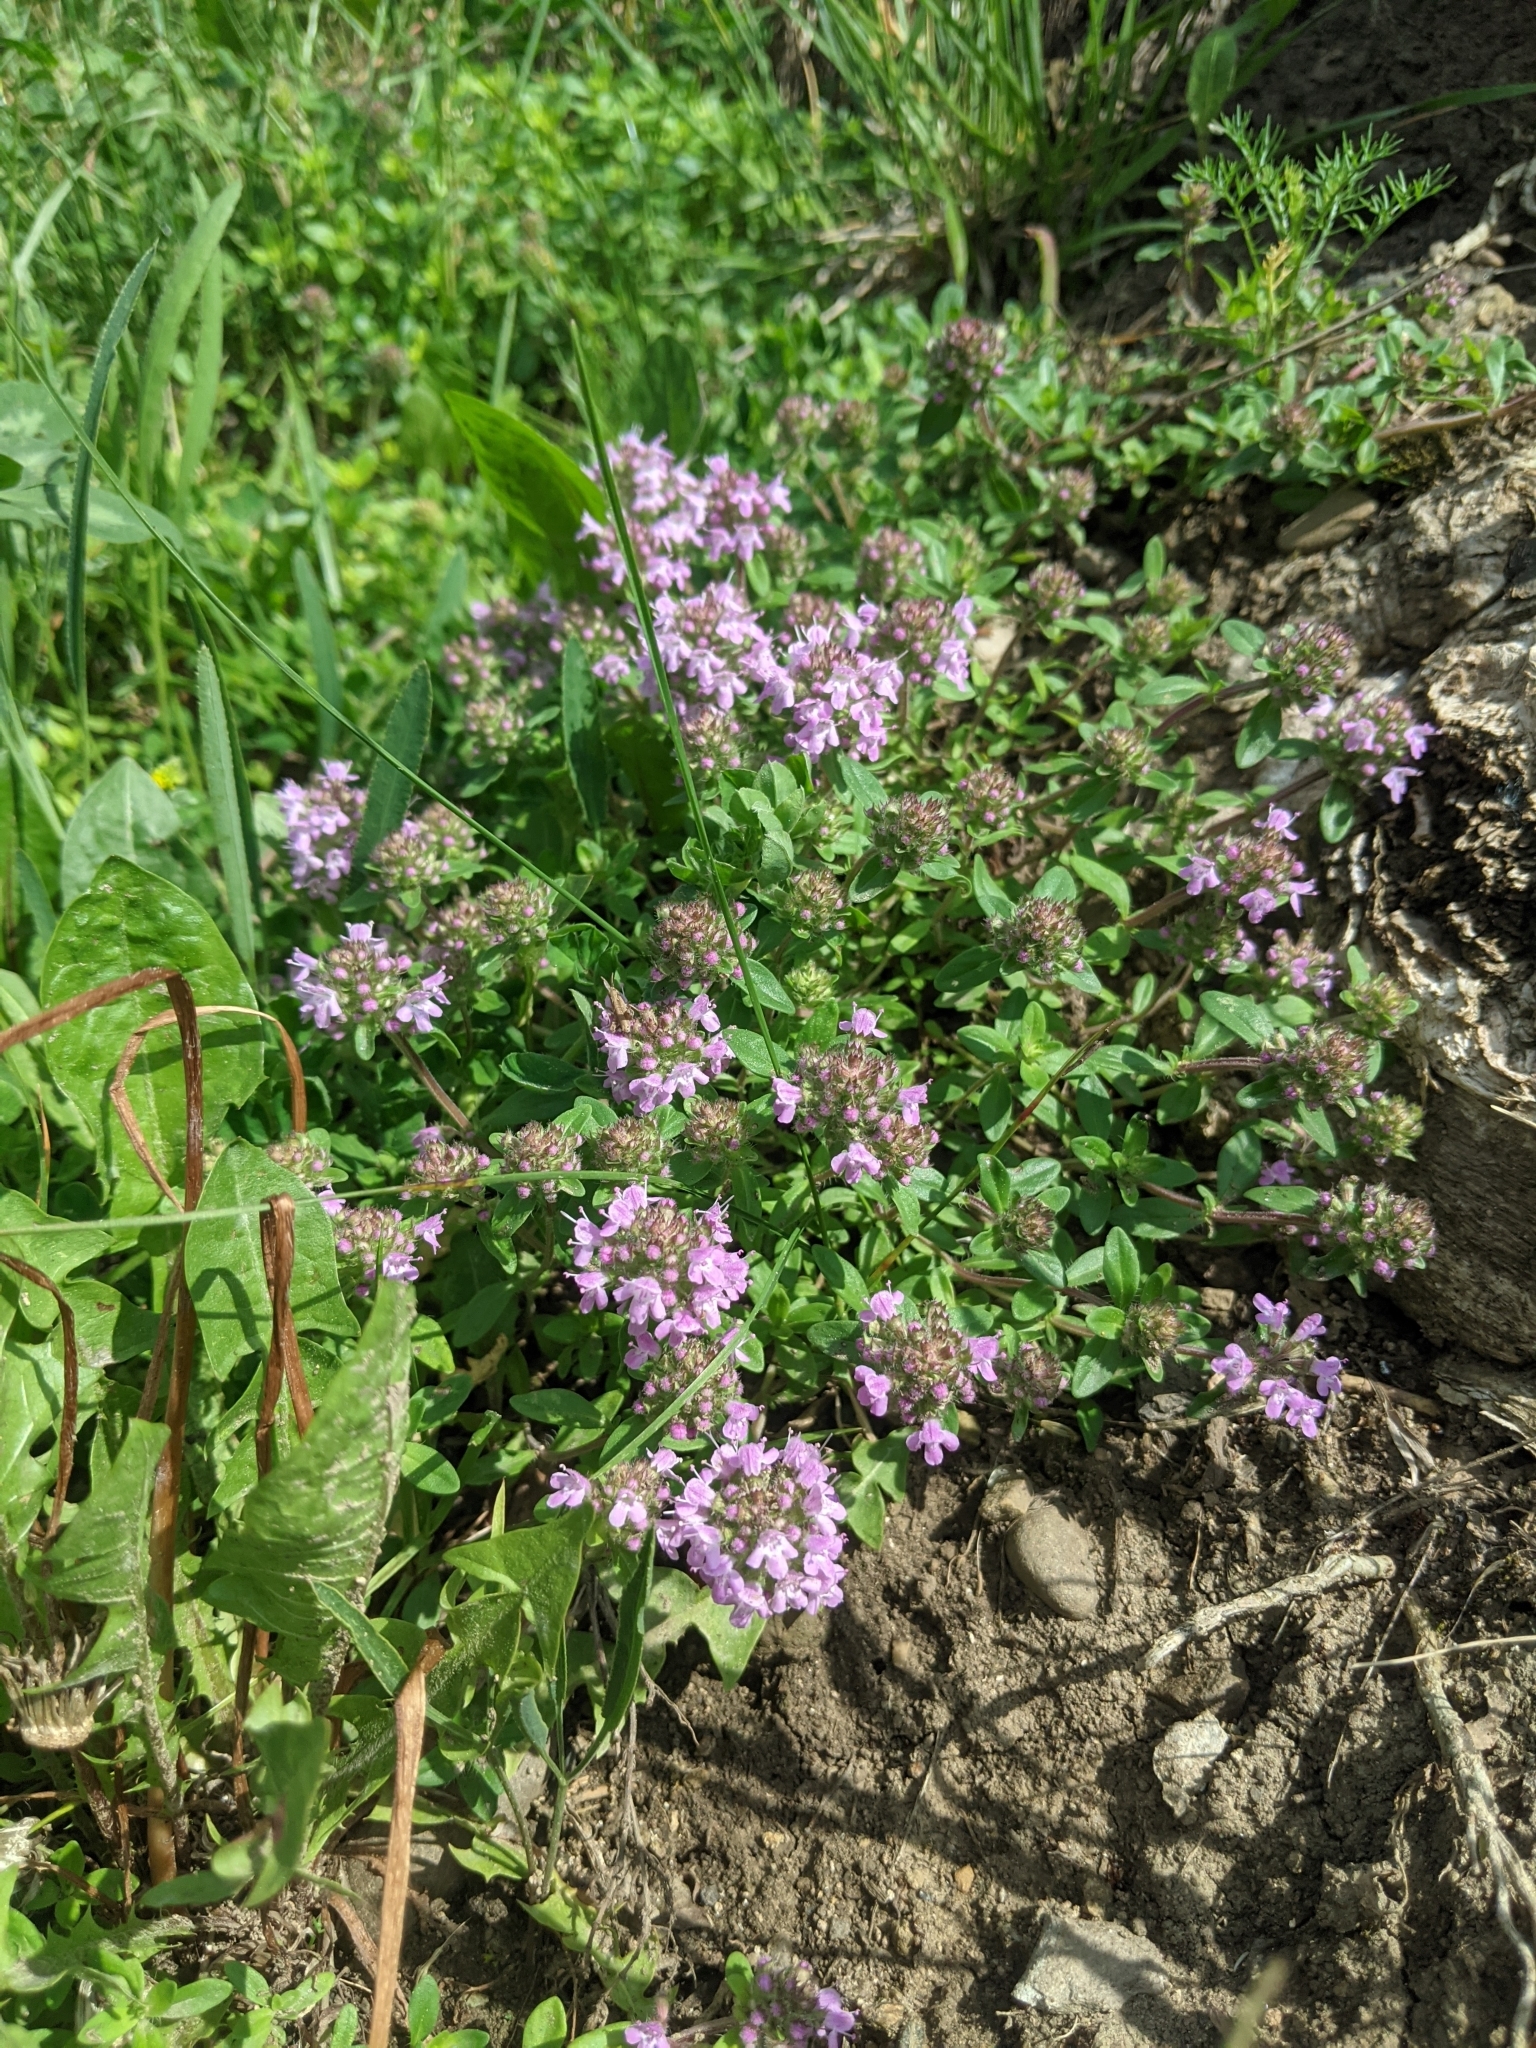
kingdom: Plantae
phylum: Tracheophyta
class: Magnoliopsida
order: Lamiales
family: Lamiaceae
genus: Thymus
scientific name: Thymus pulegioides
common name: Large thyme
